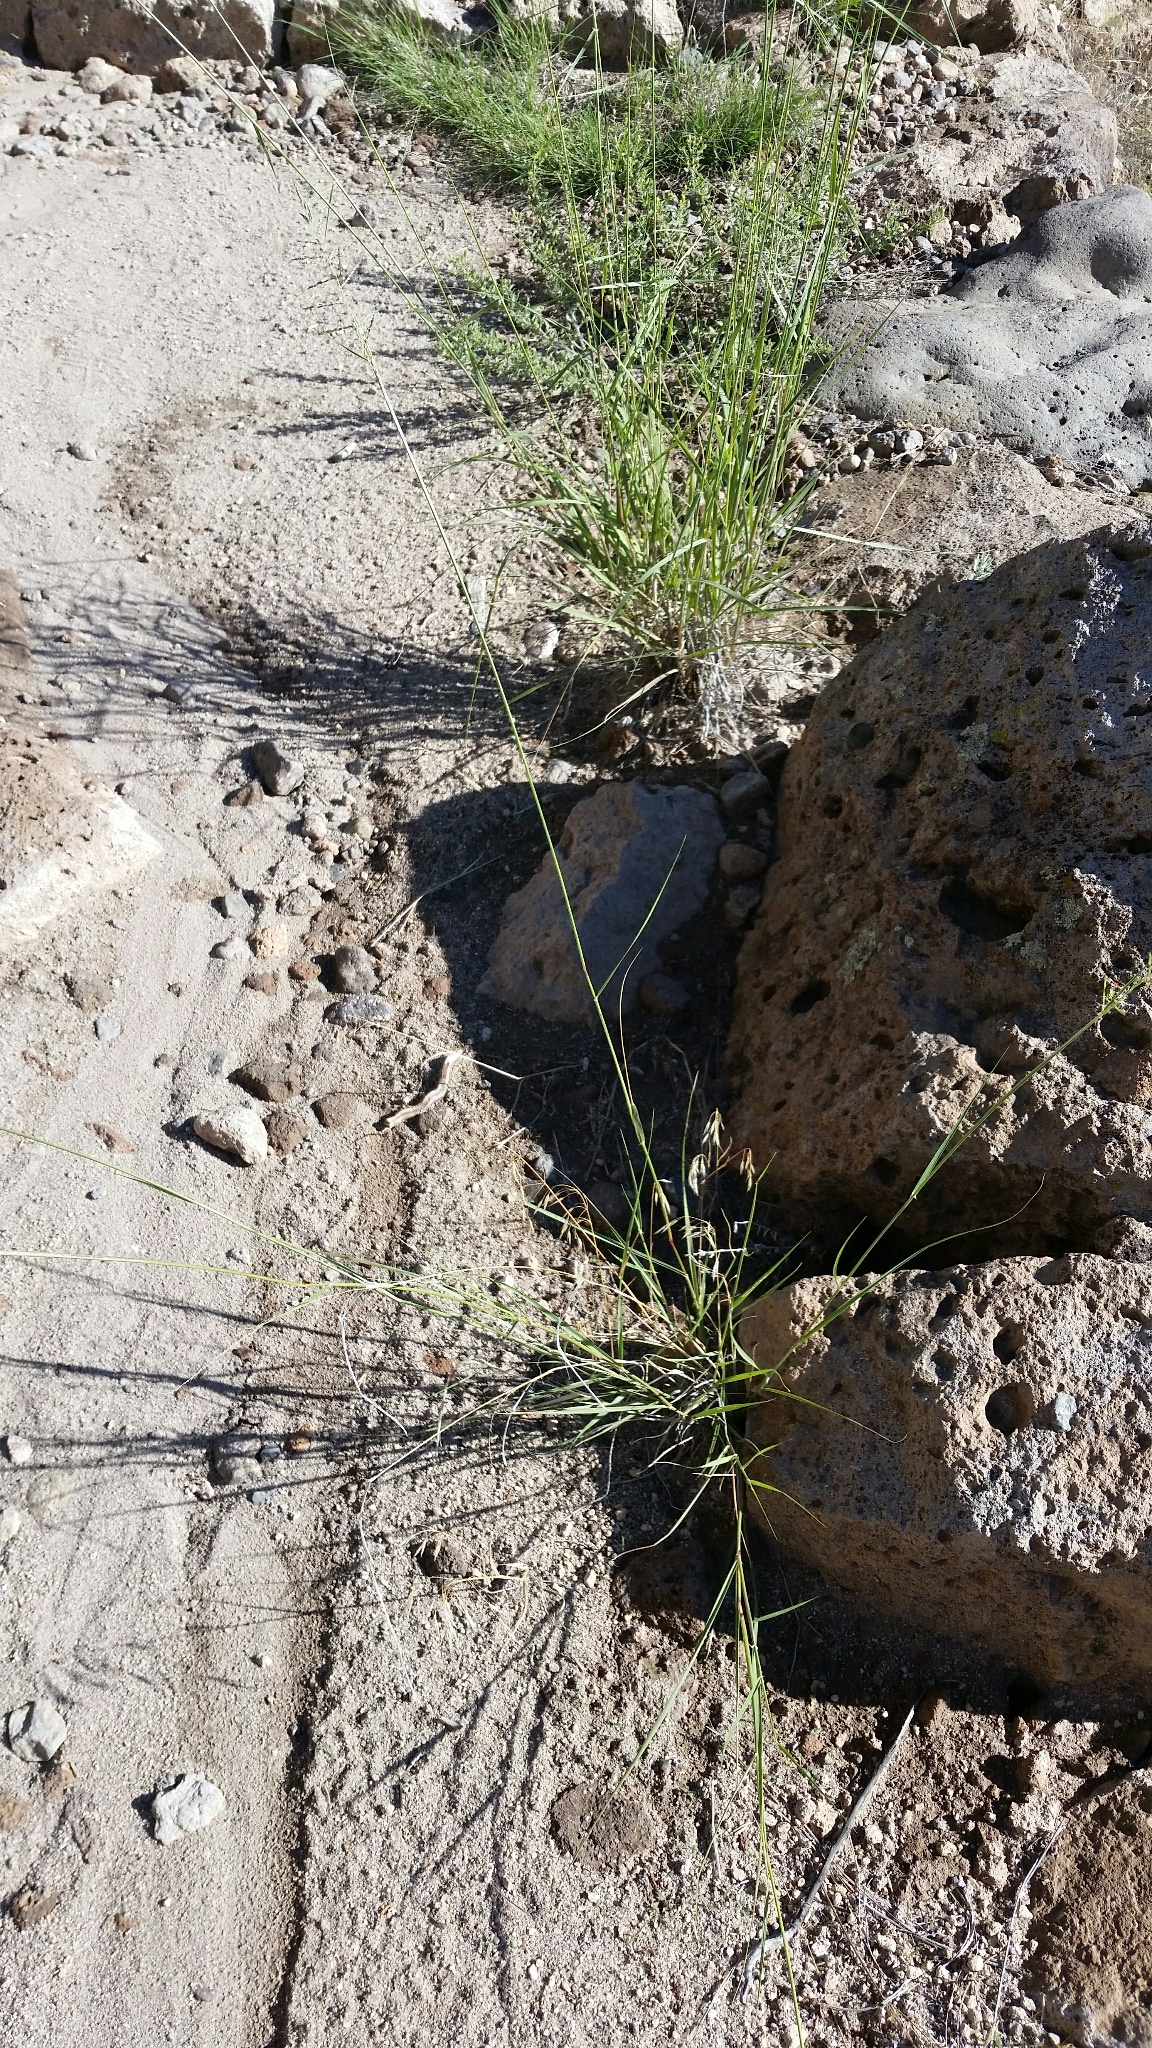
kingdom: Plantae
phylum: Tracheophyta
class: Liliopsida
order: Poales
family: Poaceae
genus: Sporobolus
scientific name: Sporobolus cryptandrus
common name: Sand dropseed
